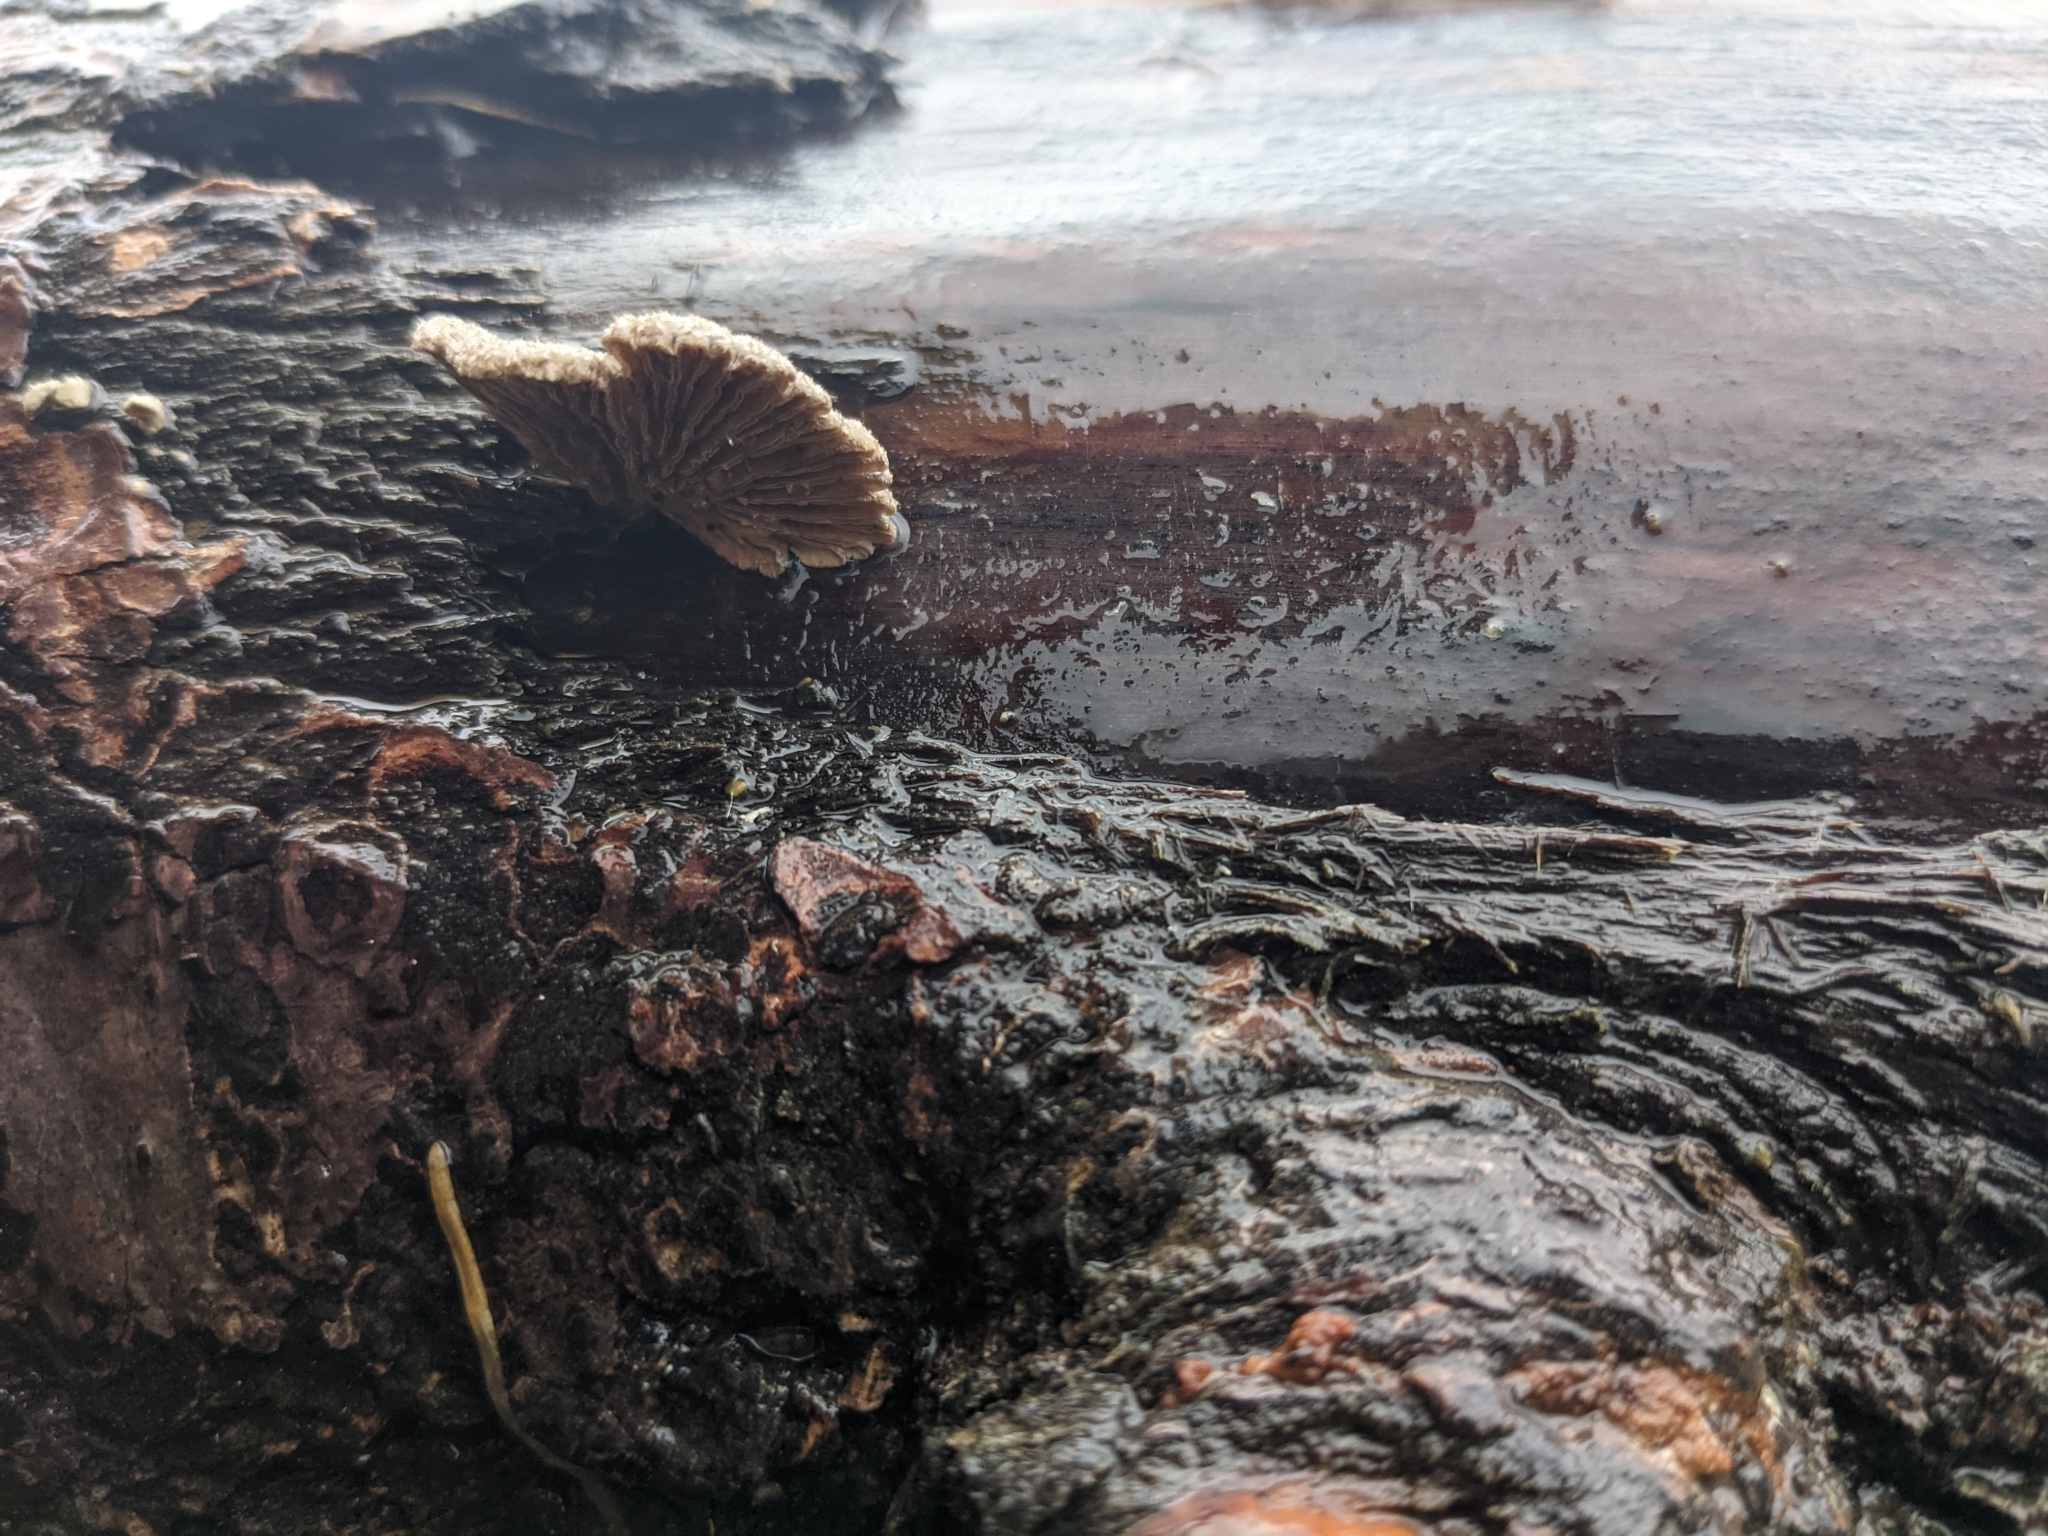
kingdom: Fungi
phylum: Basidiomycota
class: Agaricomycetes
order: Agaricales
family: Schizophyllaceae
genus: Schizophyllum
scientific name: Schizophyllum commune
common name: Common porecrust
